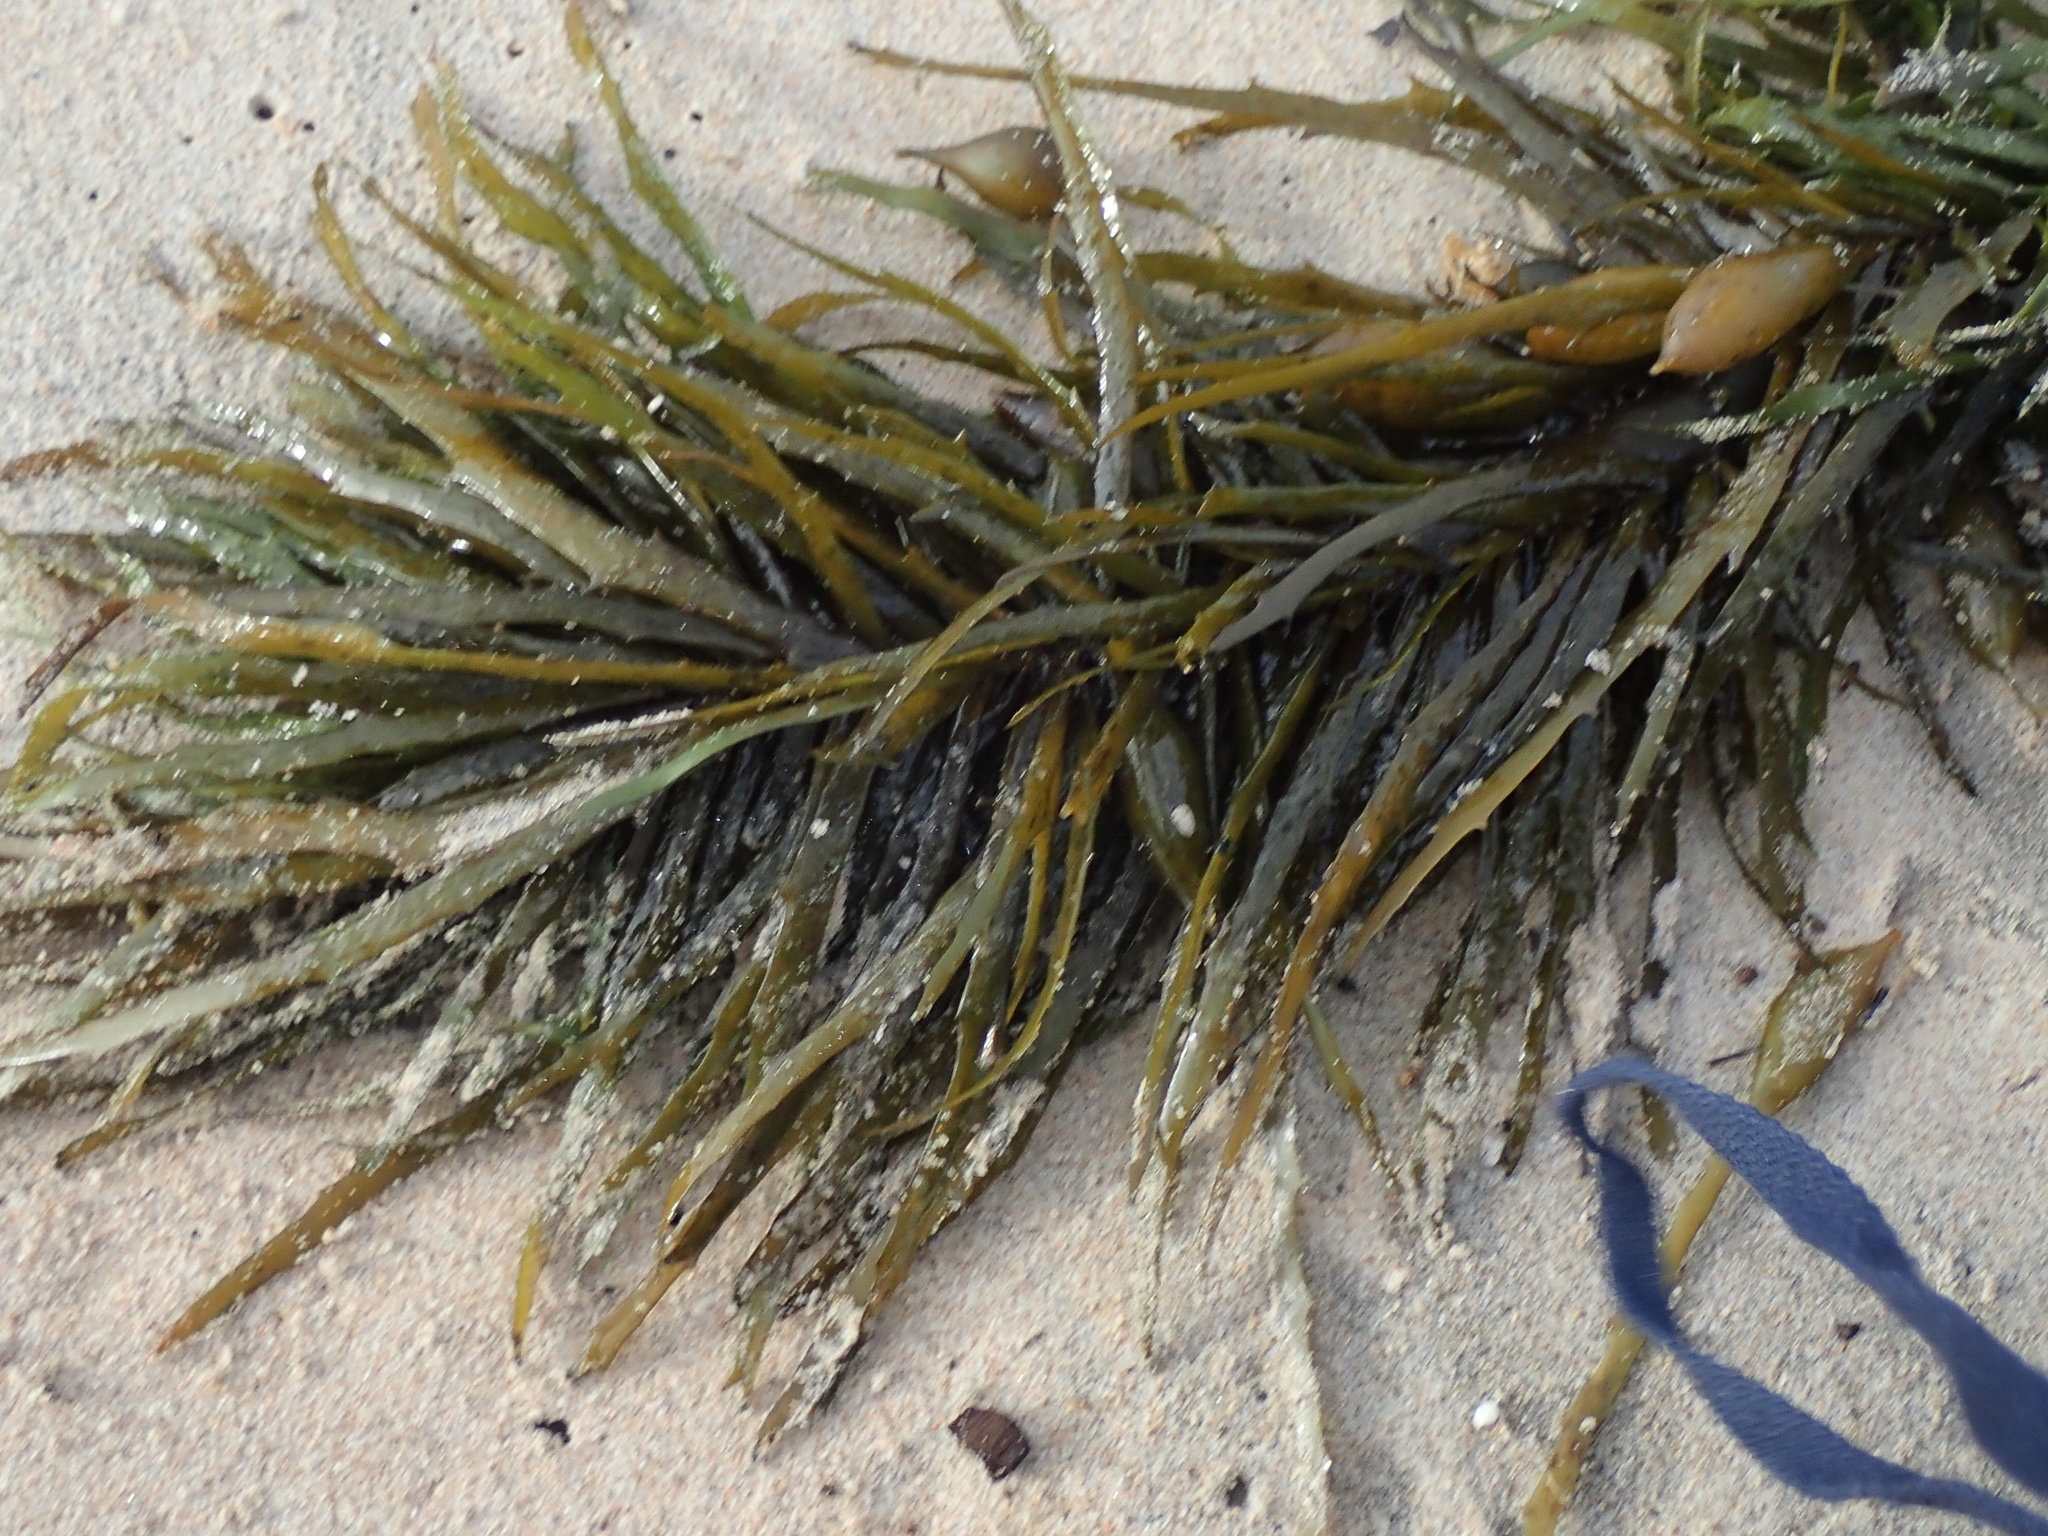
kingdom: Chromista
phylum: Ochrophyta
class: Phaeophyceae
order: Fucales
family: Seirococcaceae
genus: Phyllospora
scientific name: Phyllospora
